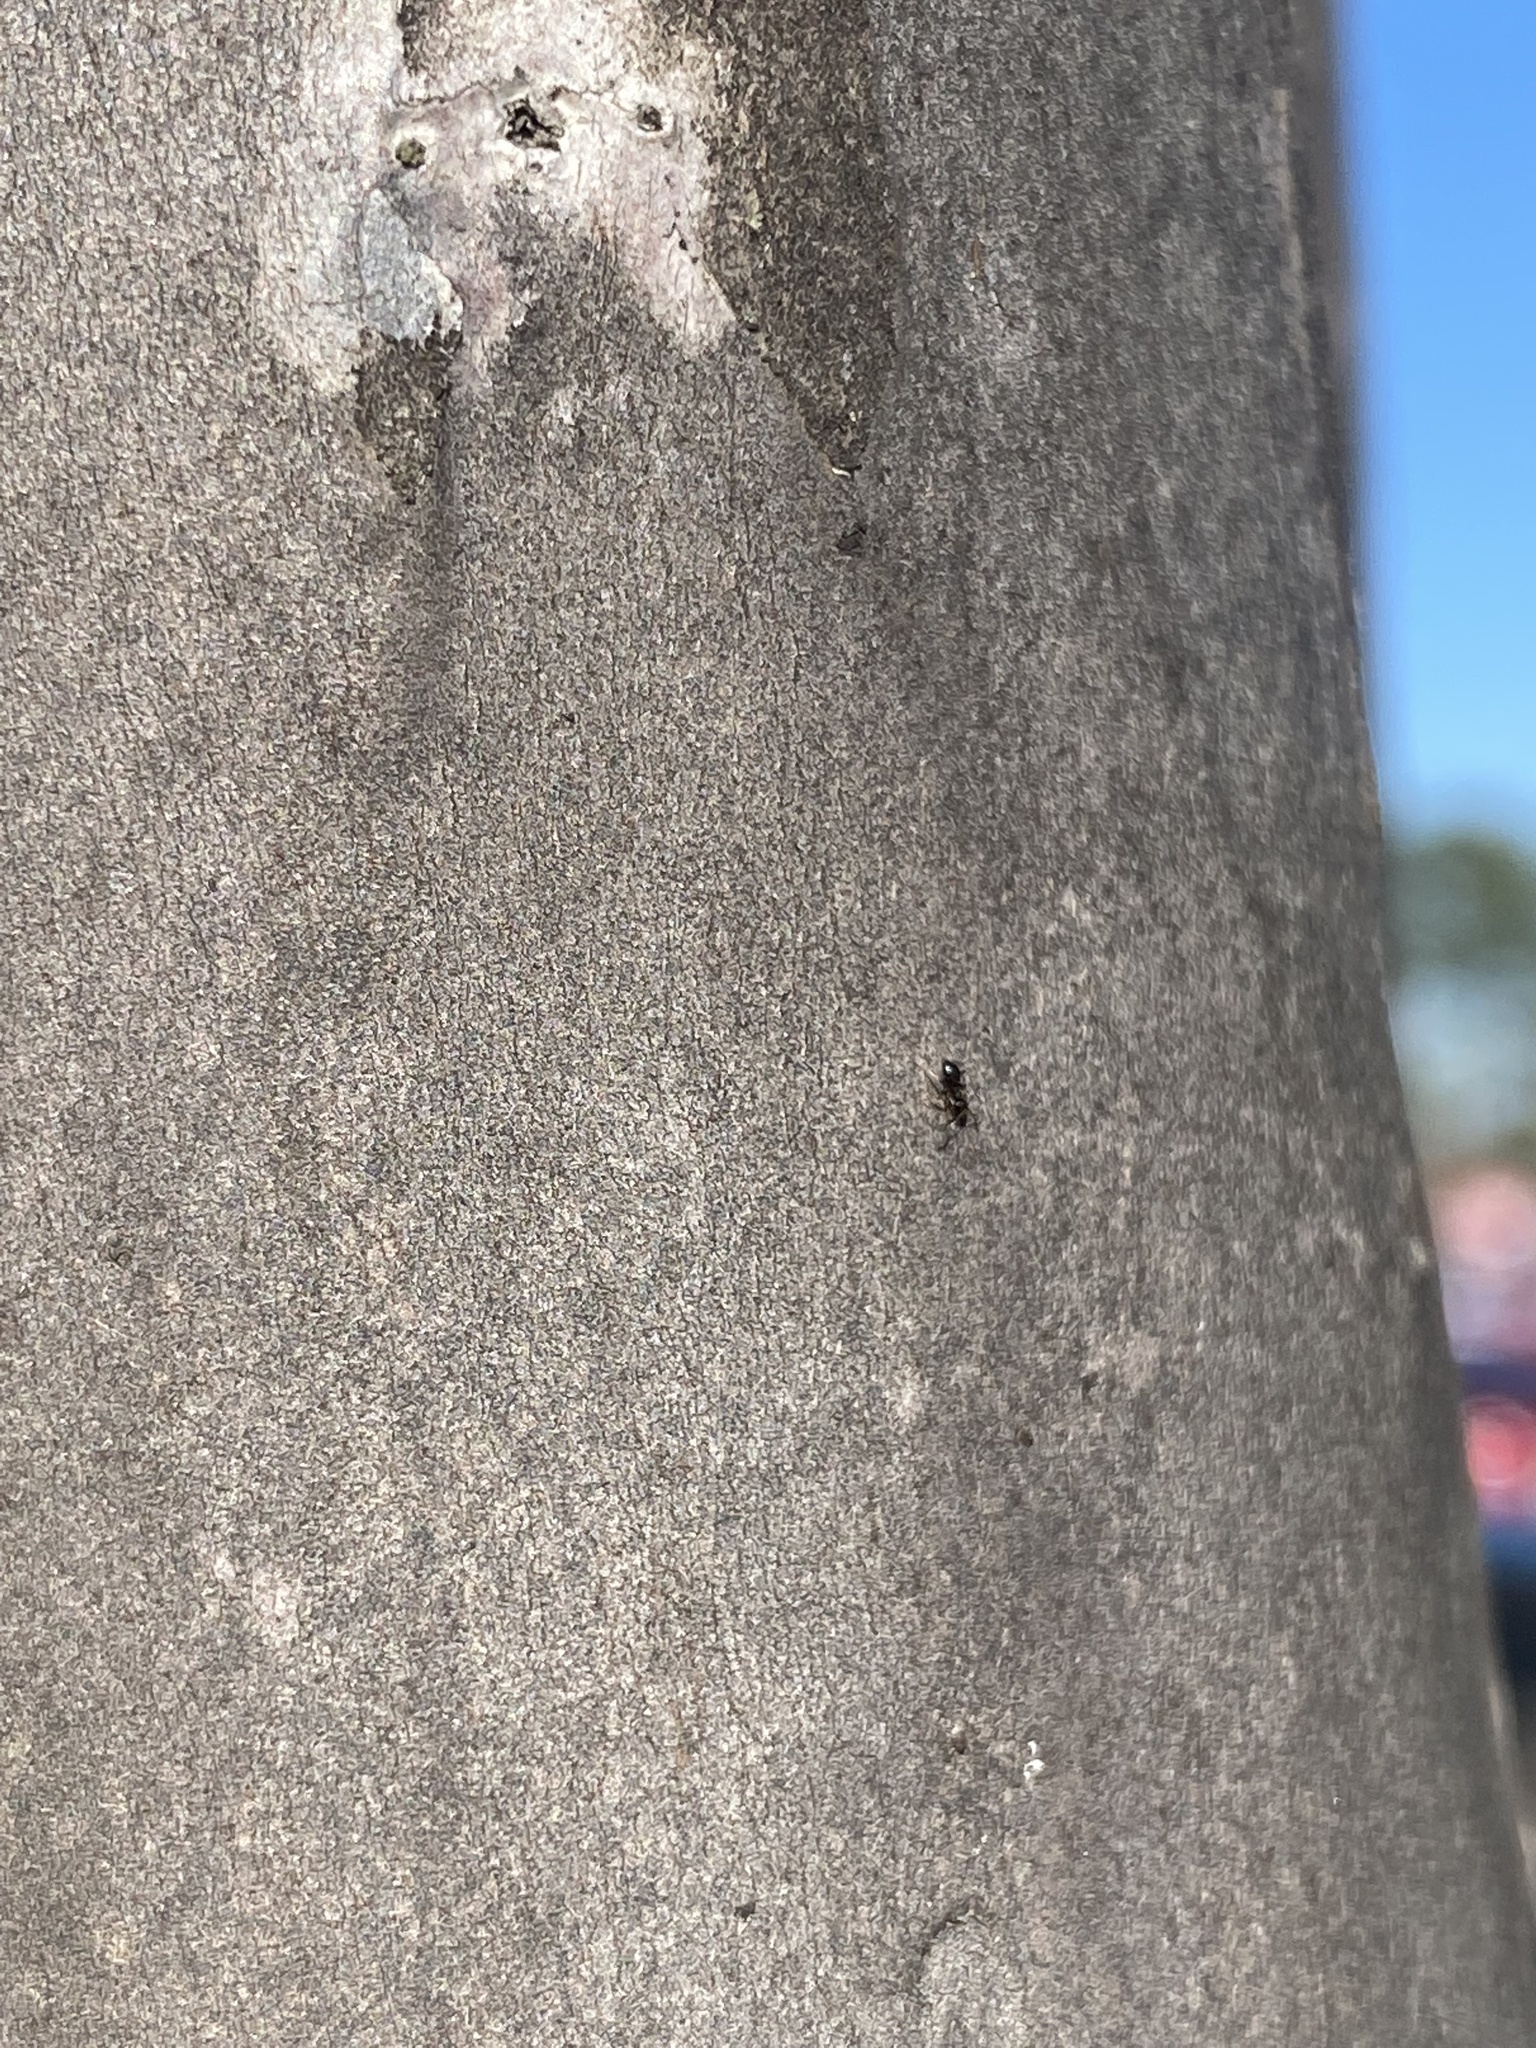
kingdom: Animalia
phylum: Arthropoda
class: Insecta
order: Hymenoptera
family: Formicidae
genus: Brachymyrmex
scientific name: Brachymyrmex patagonicus
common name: Dark rover ant
